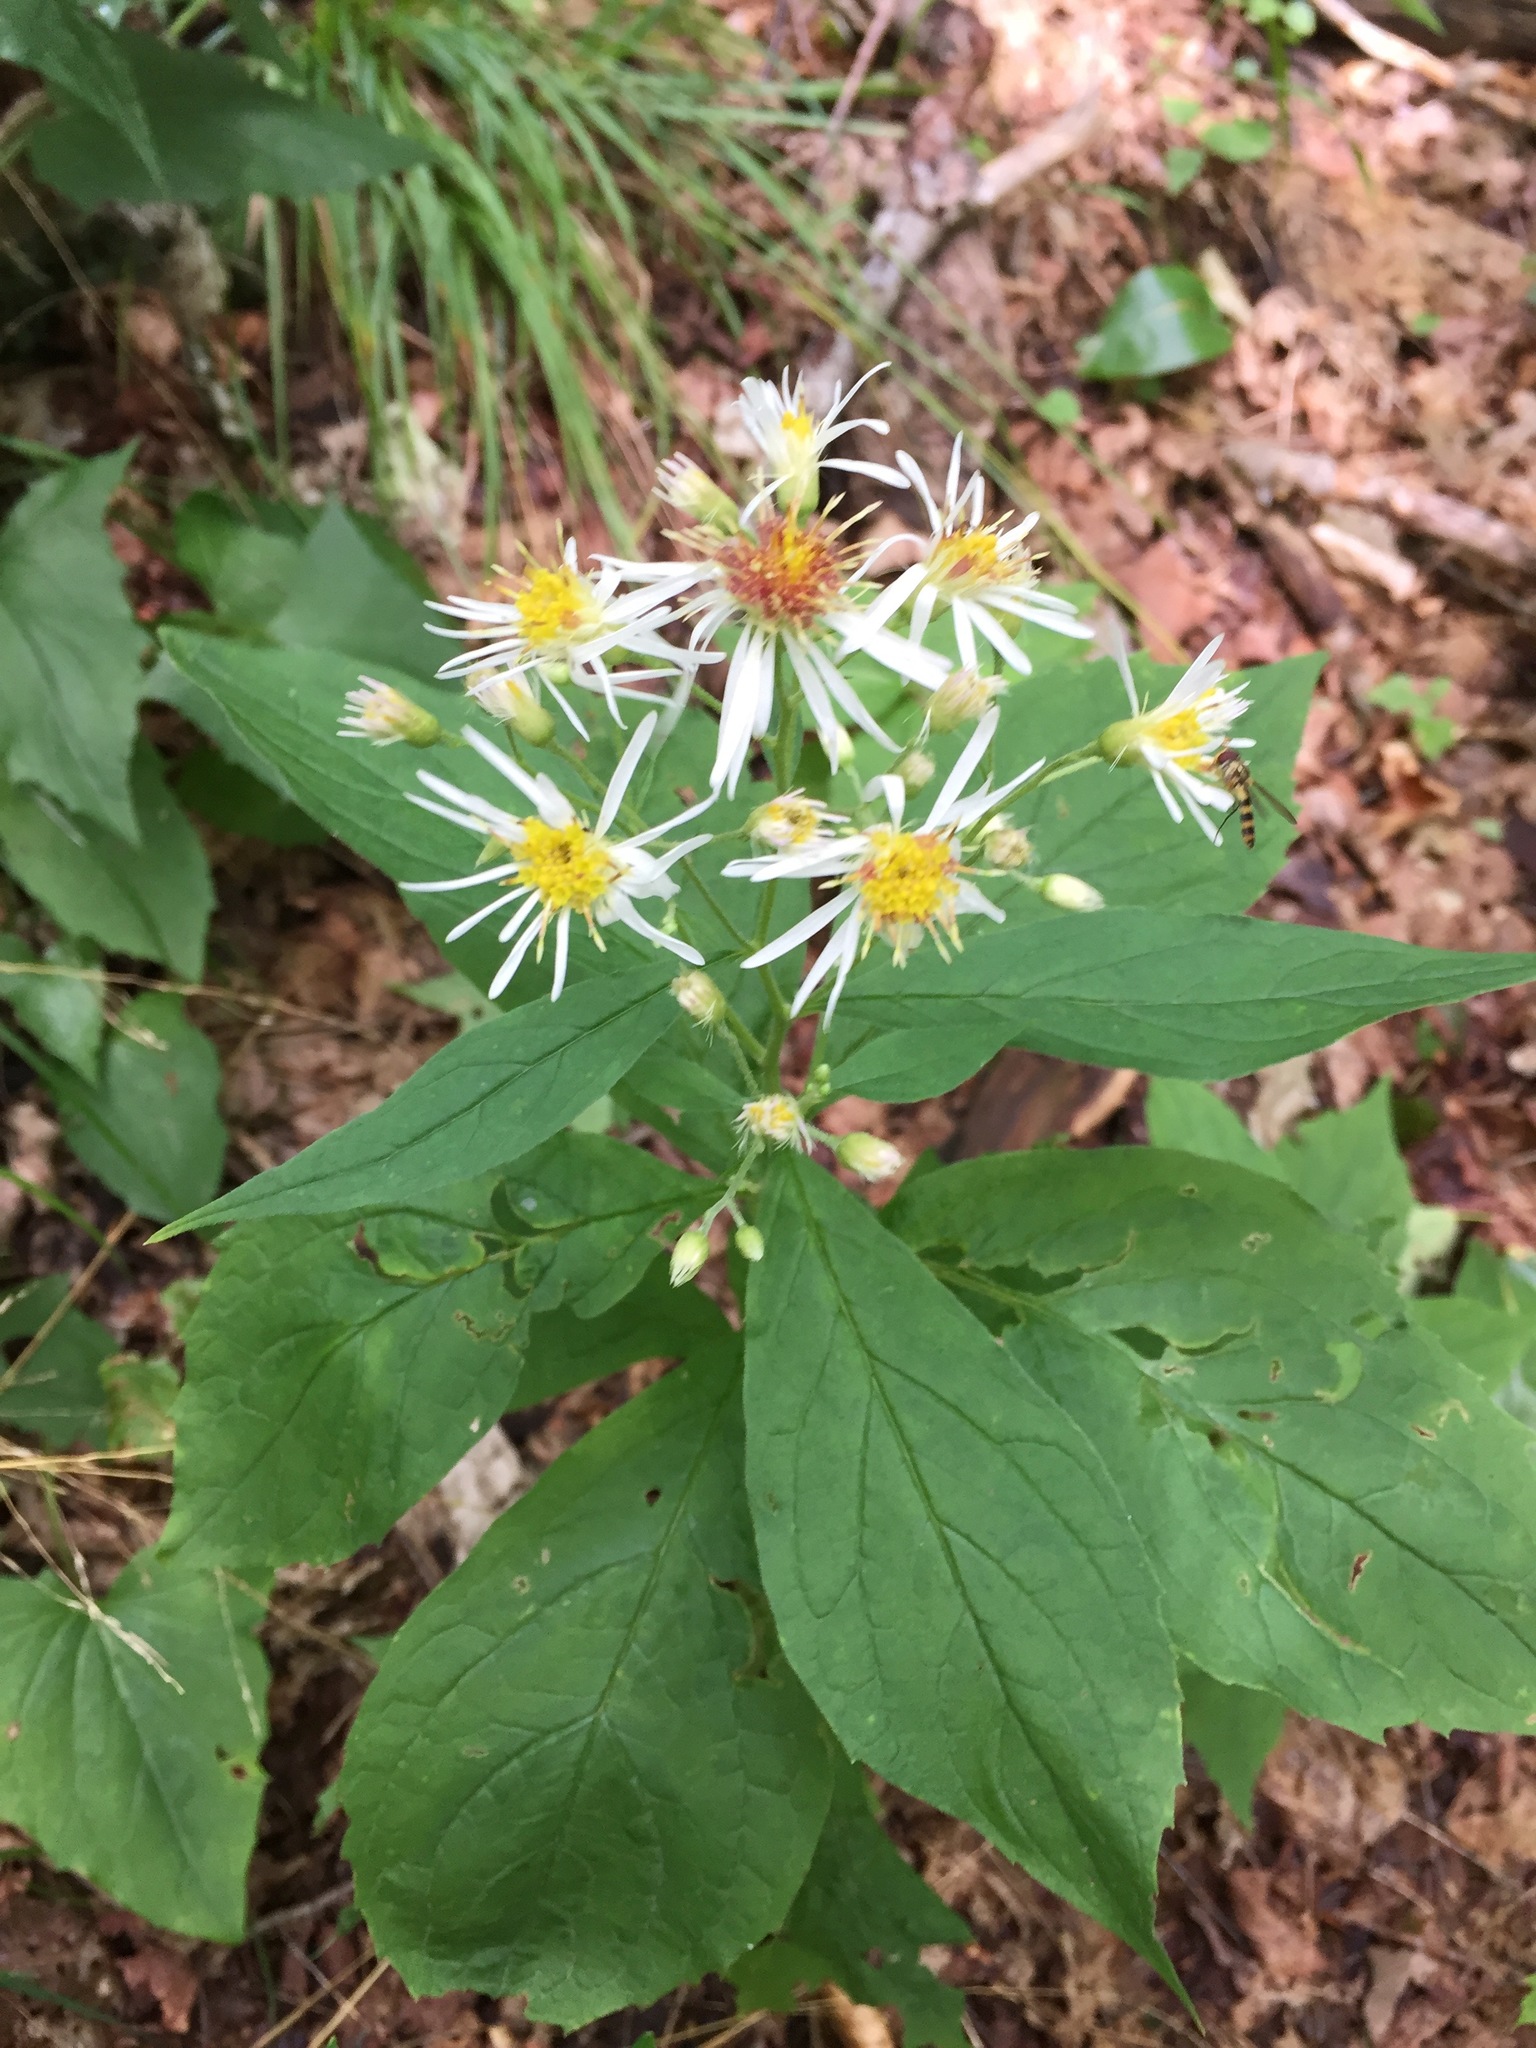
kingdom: Plantae
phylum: Tracheophyta
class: Magnoliopsida
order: Asterales
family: Asteraceae
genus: Oclemena
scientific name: Oclemena acuminata
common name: Mountain aster
